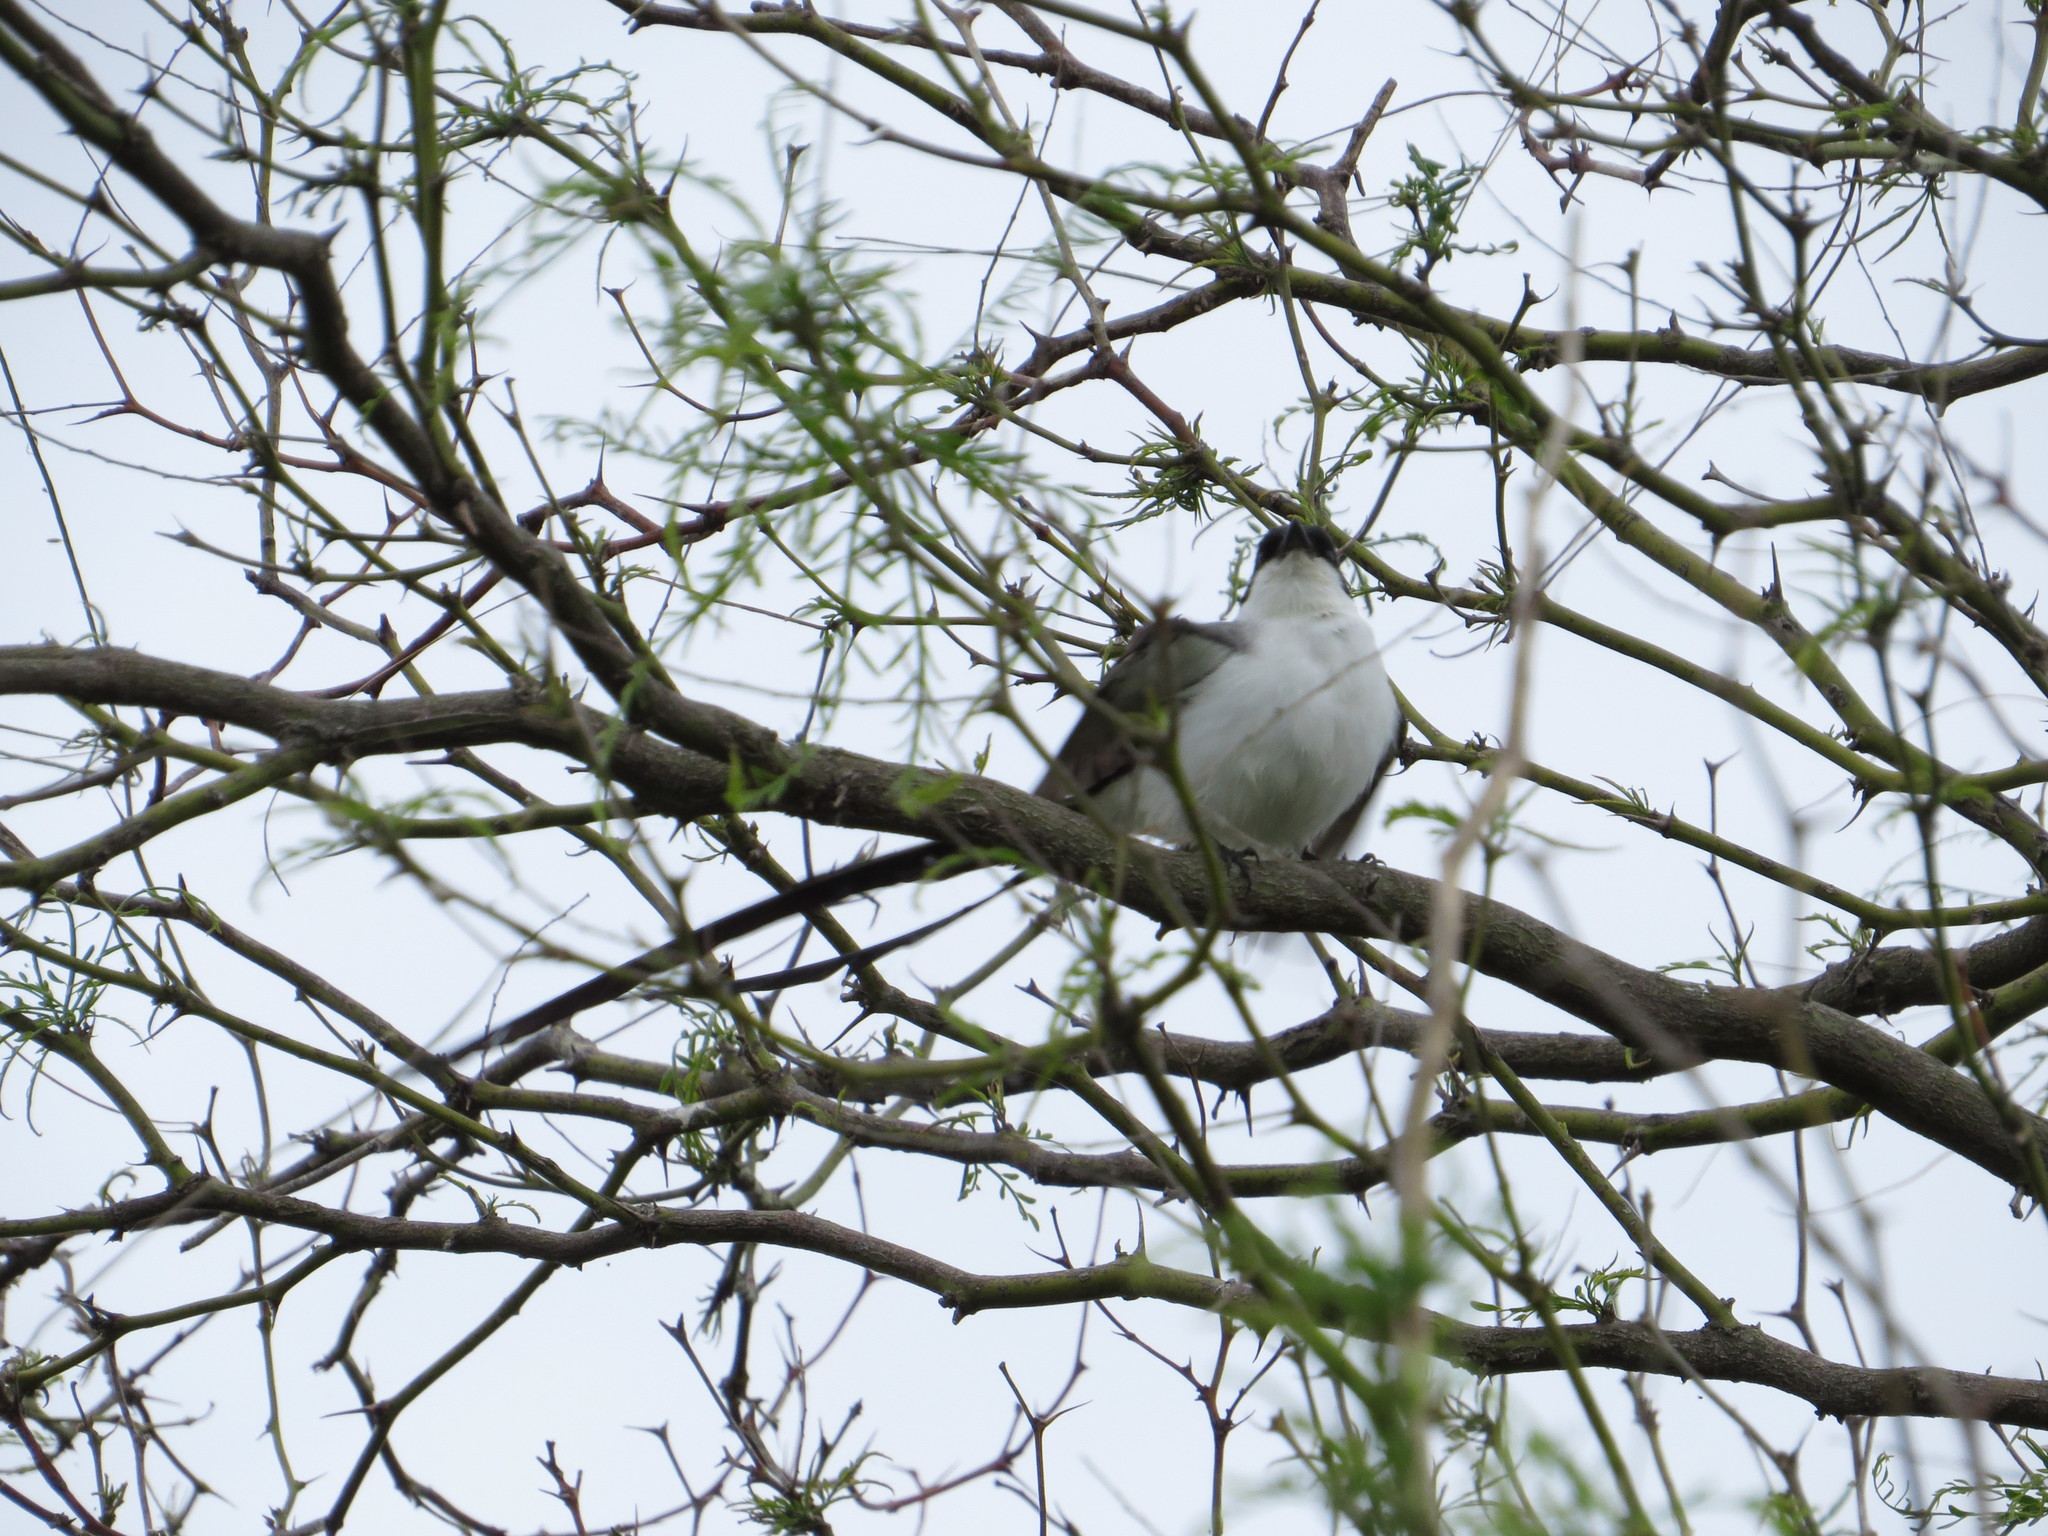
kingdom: Animalia
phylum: Chordata
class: Aves
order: Passeriformes
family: Tyrannidae
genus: Tyrannus
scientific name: Tyrannus savana
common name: Fork-tailed flycatcher
